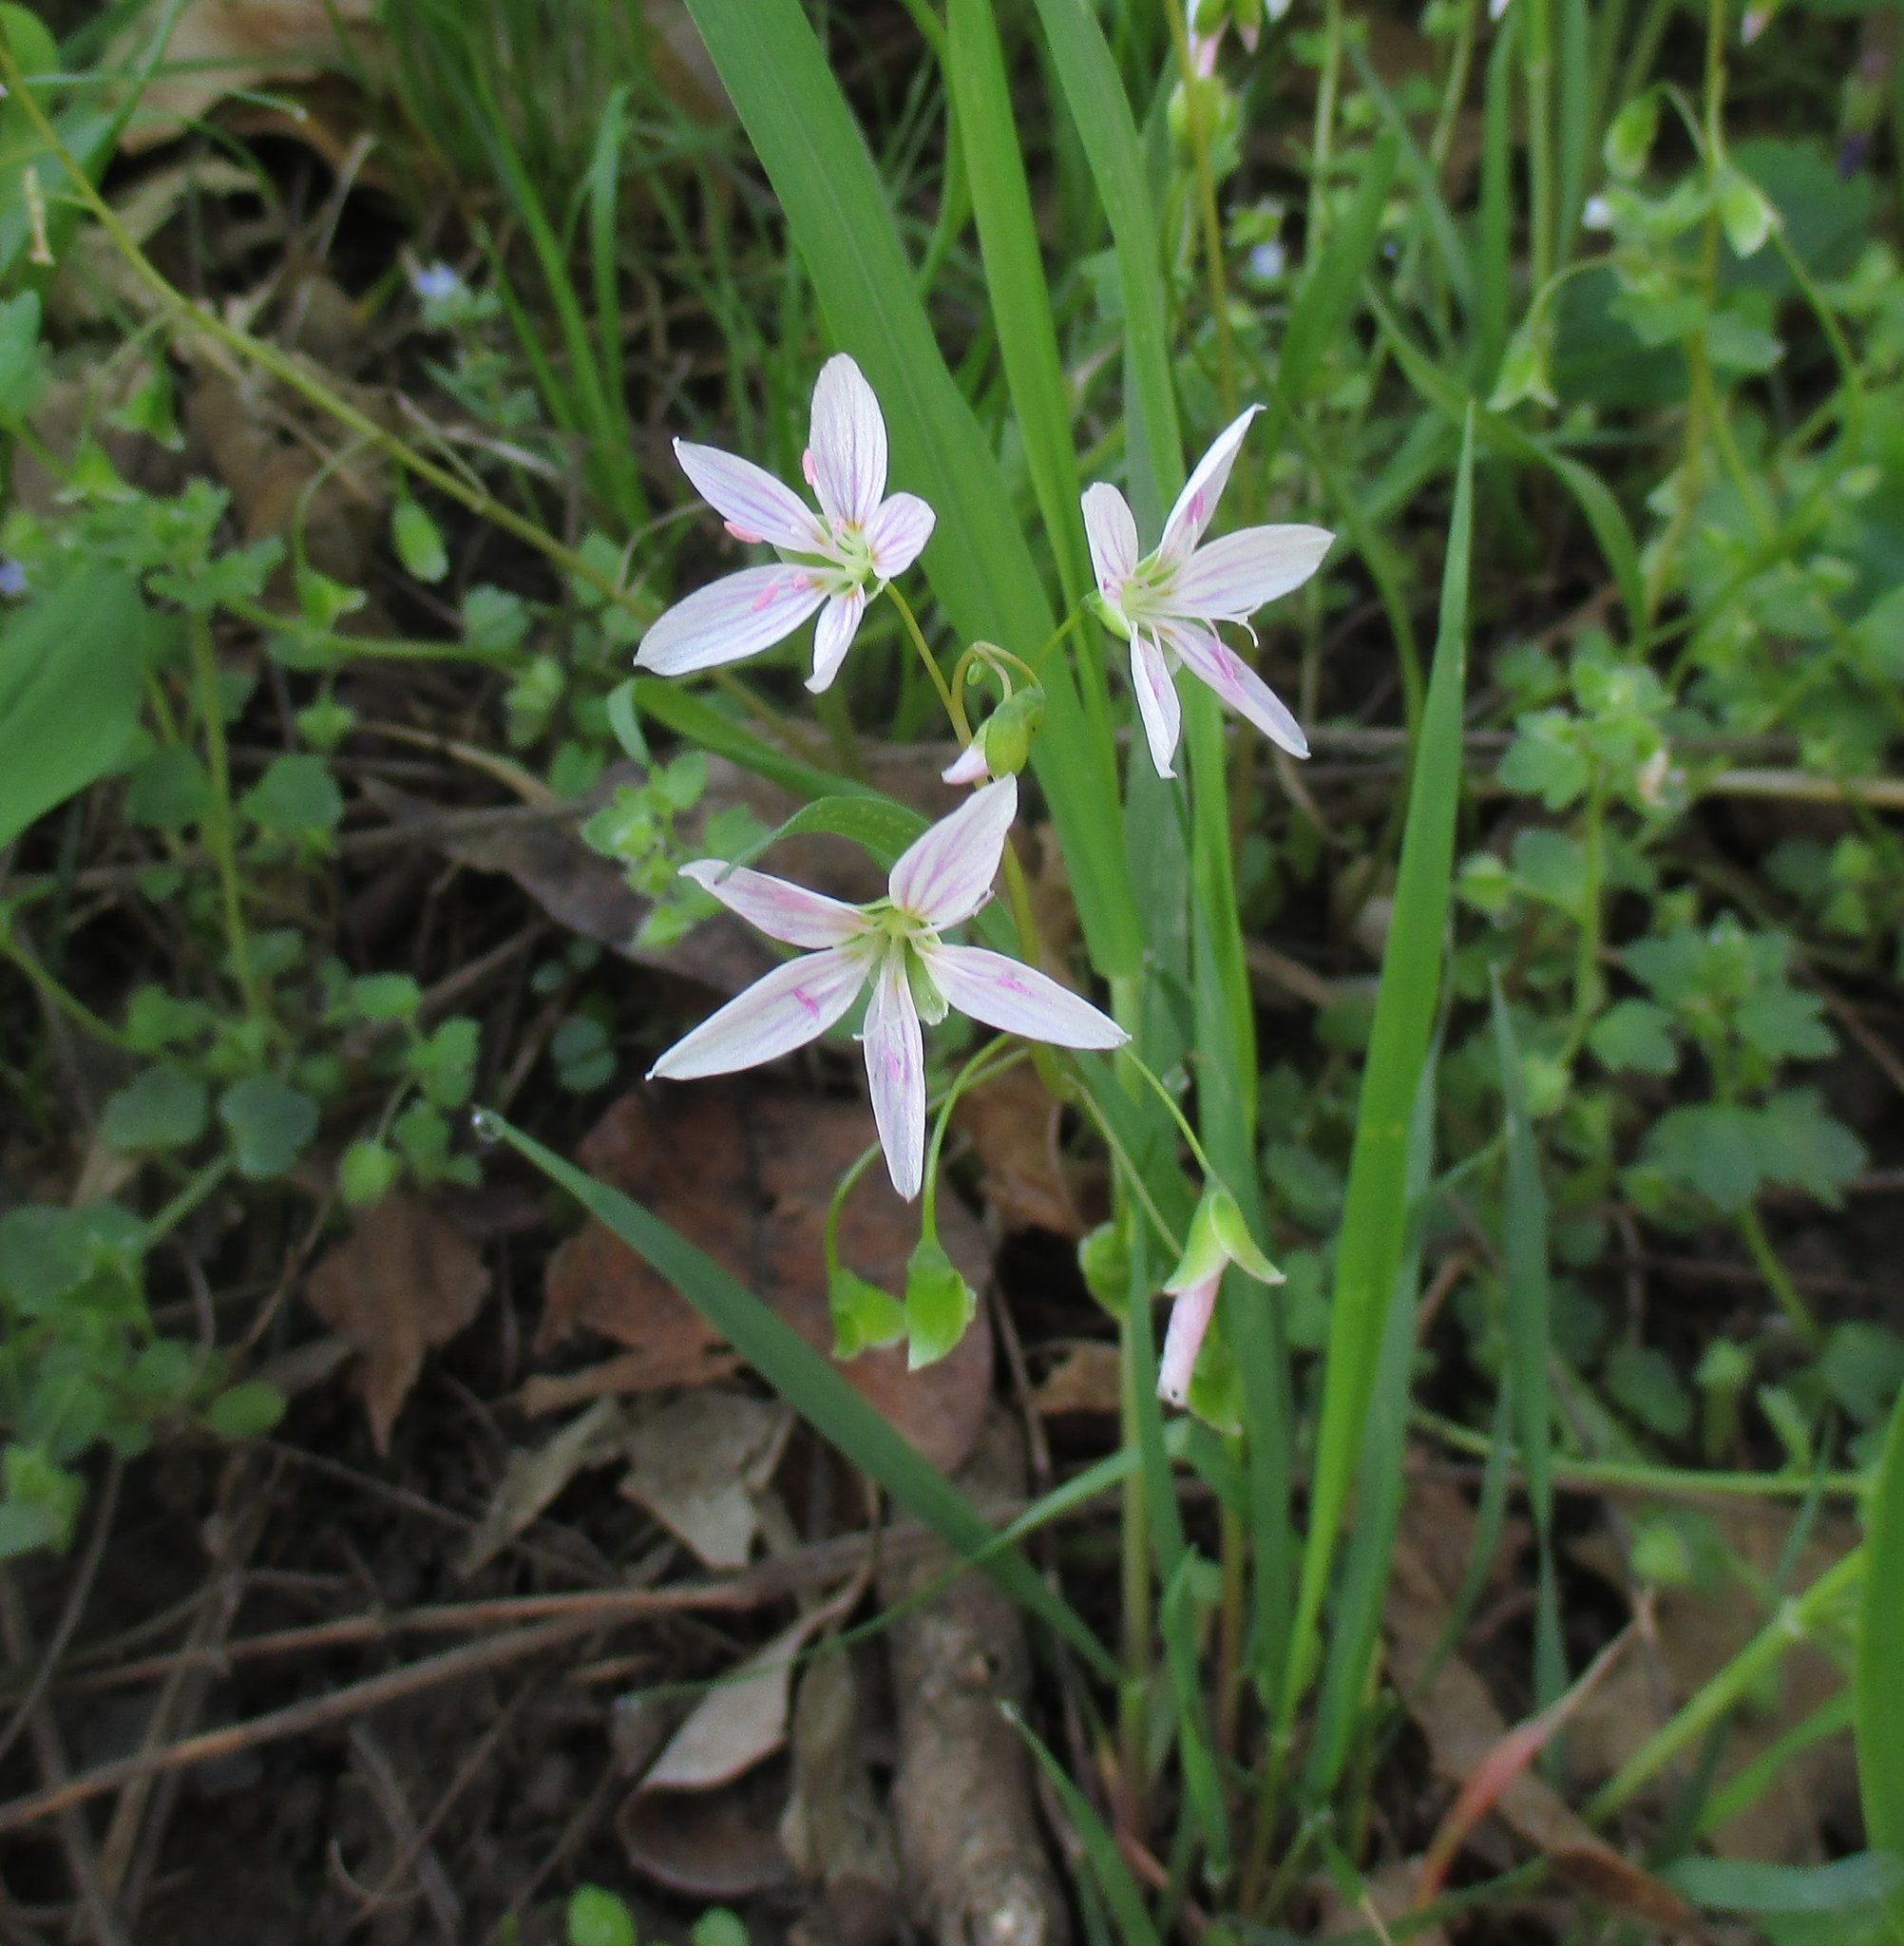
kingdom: Plantae
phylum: Tracheophyta
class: Magnoliopsida
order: Caryophyllales
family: Montiaceae
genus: Claytonia
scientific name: Claytonia virginica
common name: Virginia springbeauty
